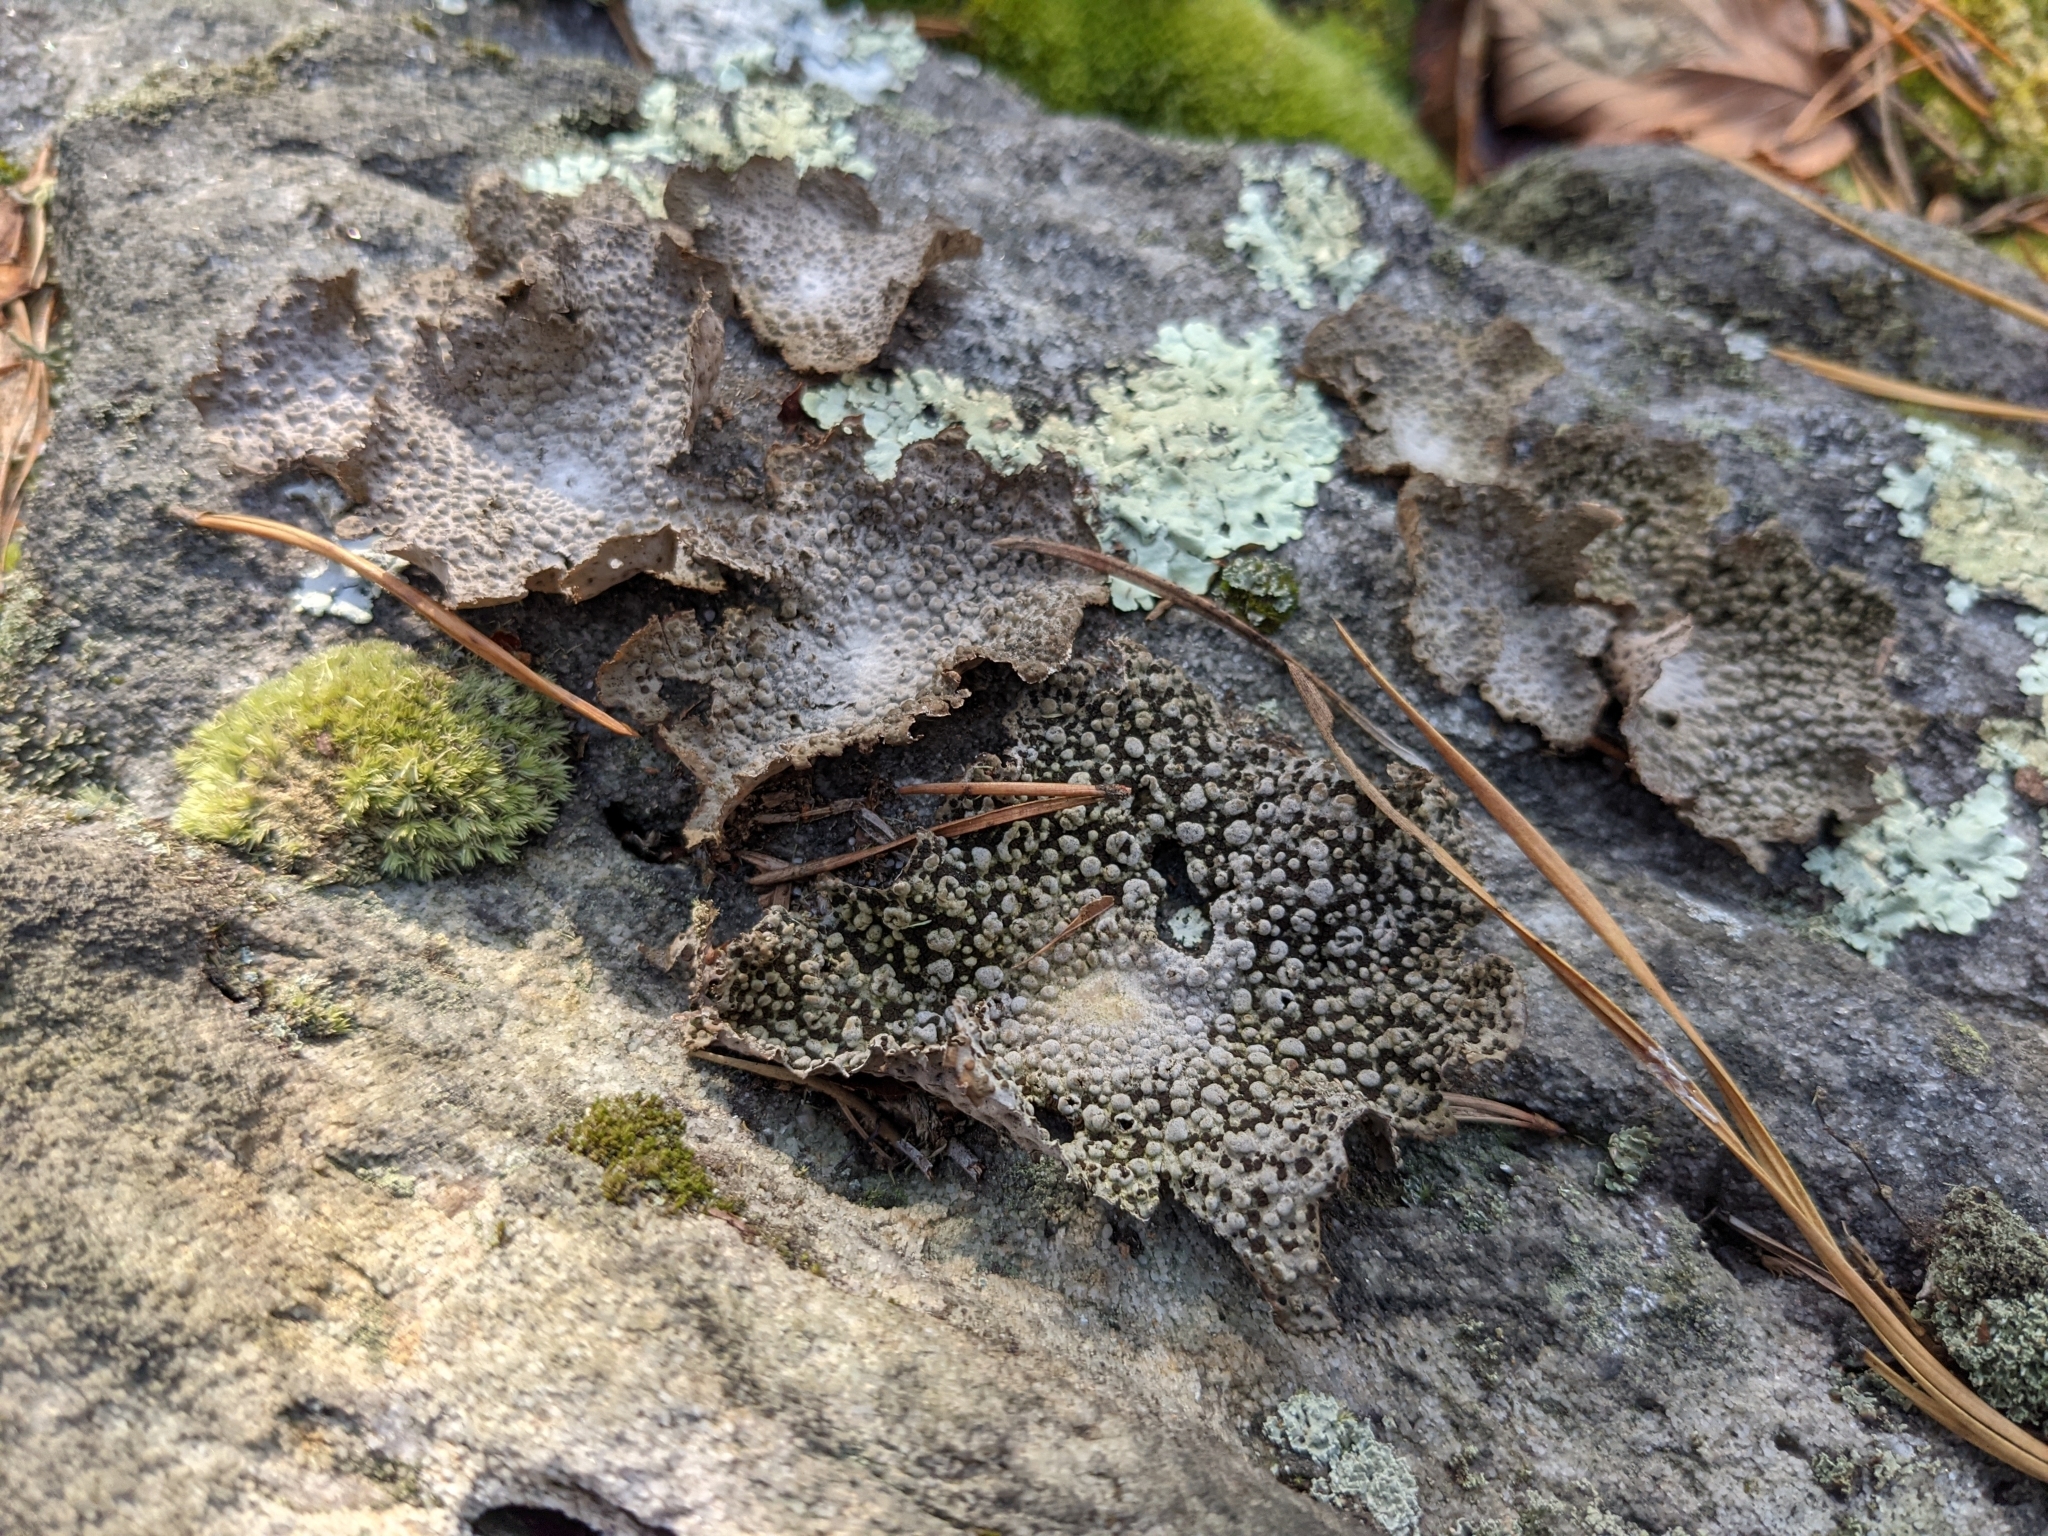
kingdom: Fungi
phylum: Ascomycota
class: Lecanoromycetes
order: Umbilicariales
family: Umbilicariaceae
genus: Lasallia
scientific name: Lasallia papulosa
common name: Common toadskin lichen
